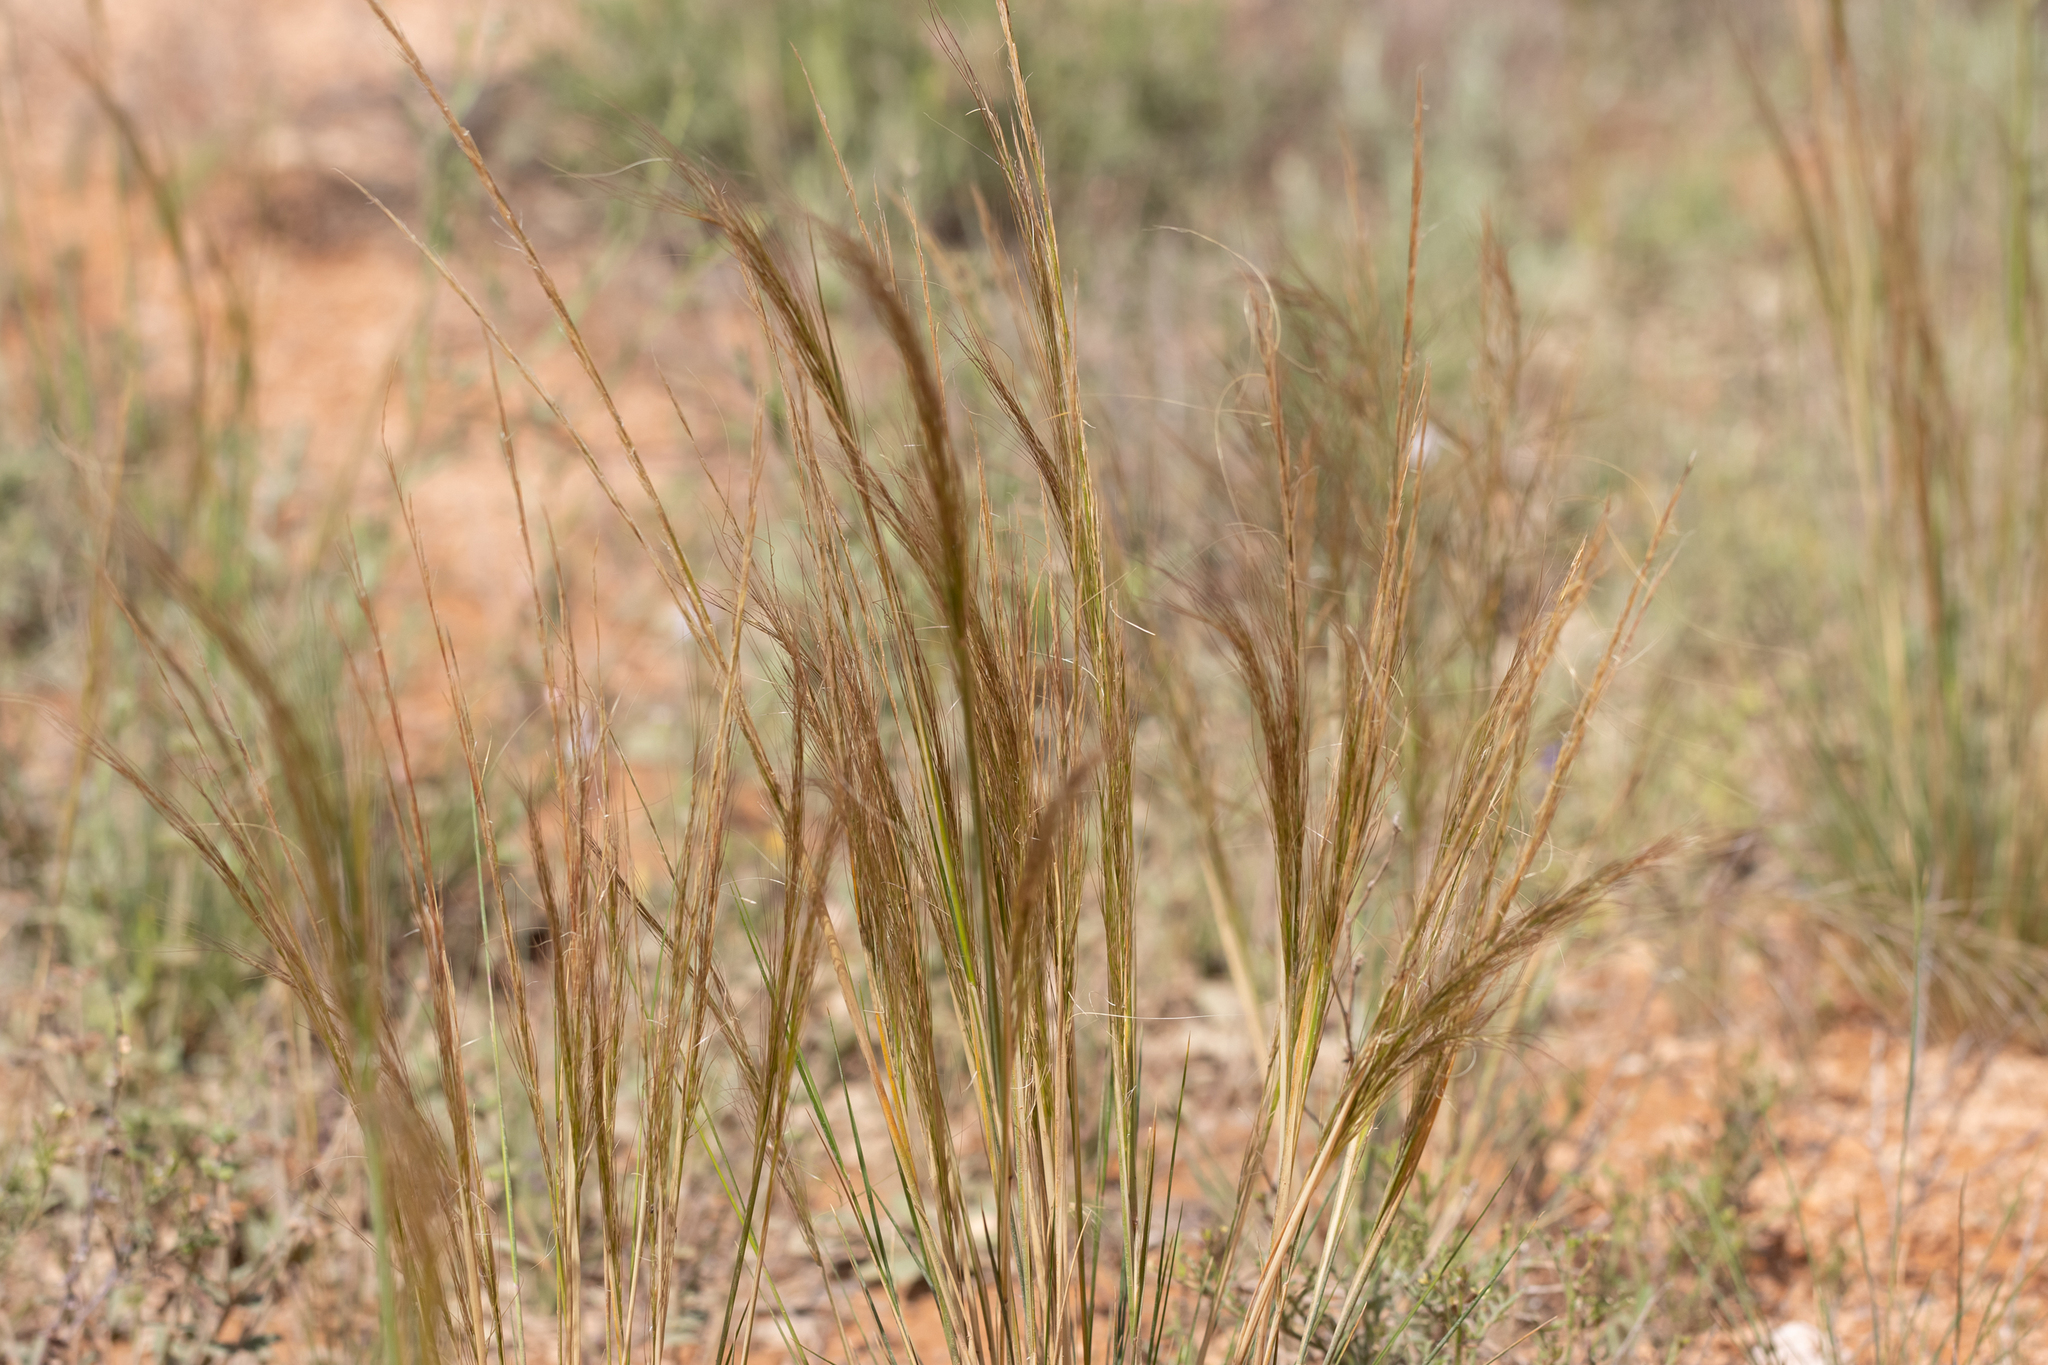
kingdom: Plantae
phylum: Tracheophyta
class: Liliopsida
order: Poales
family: Poaceae
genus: Austrostipa
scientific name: Austrostipa nitida
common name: Balcarra grass
